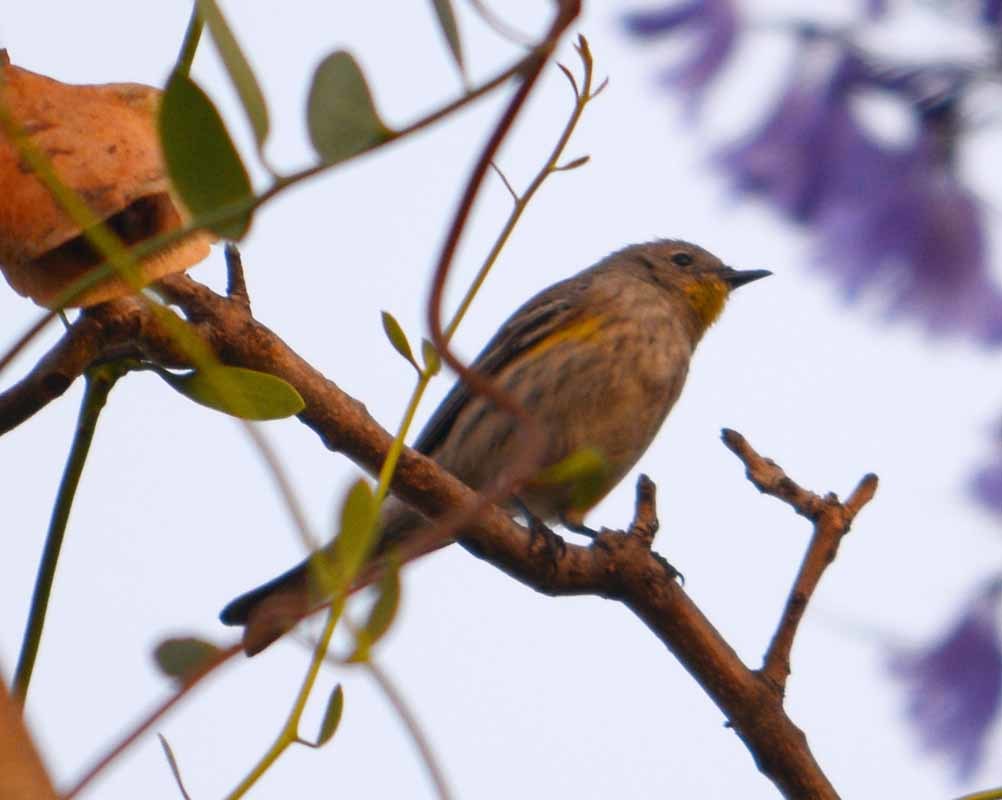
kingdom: Animalia
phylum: Chordata
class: Aves
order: Passeriformes
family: Parulidae
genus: Setophaga
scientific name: Setophaga coronata
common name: Myrtle warbler
